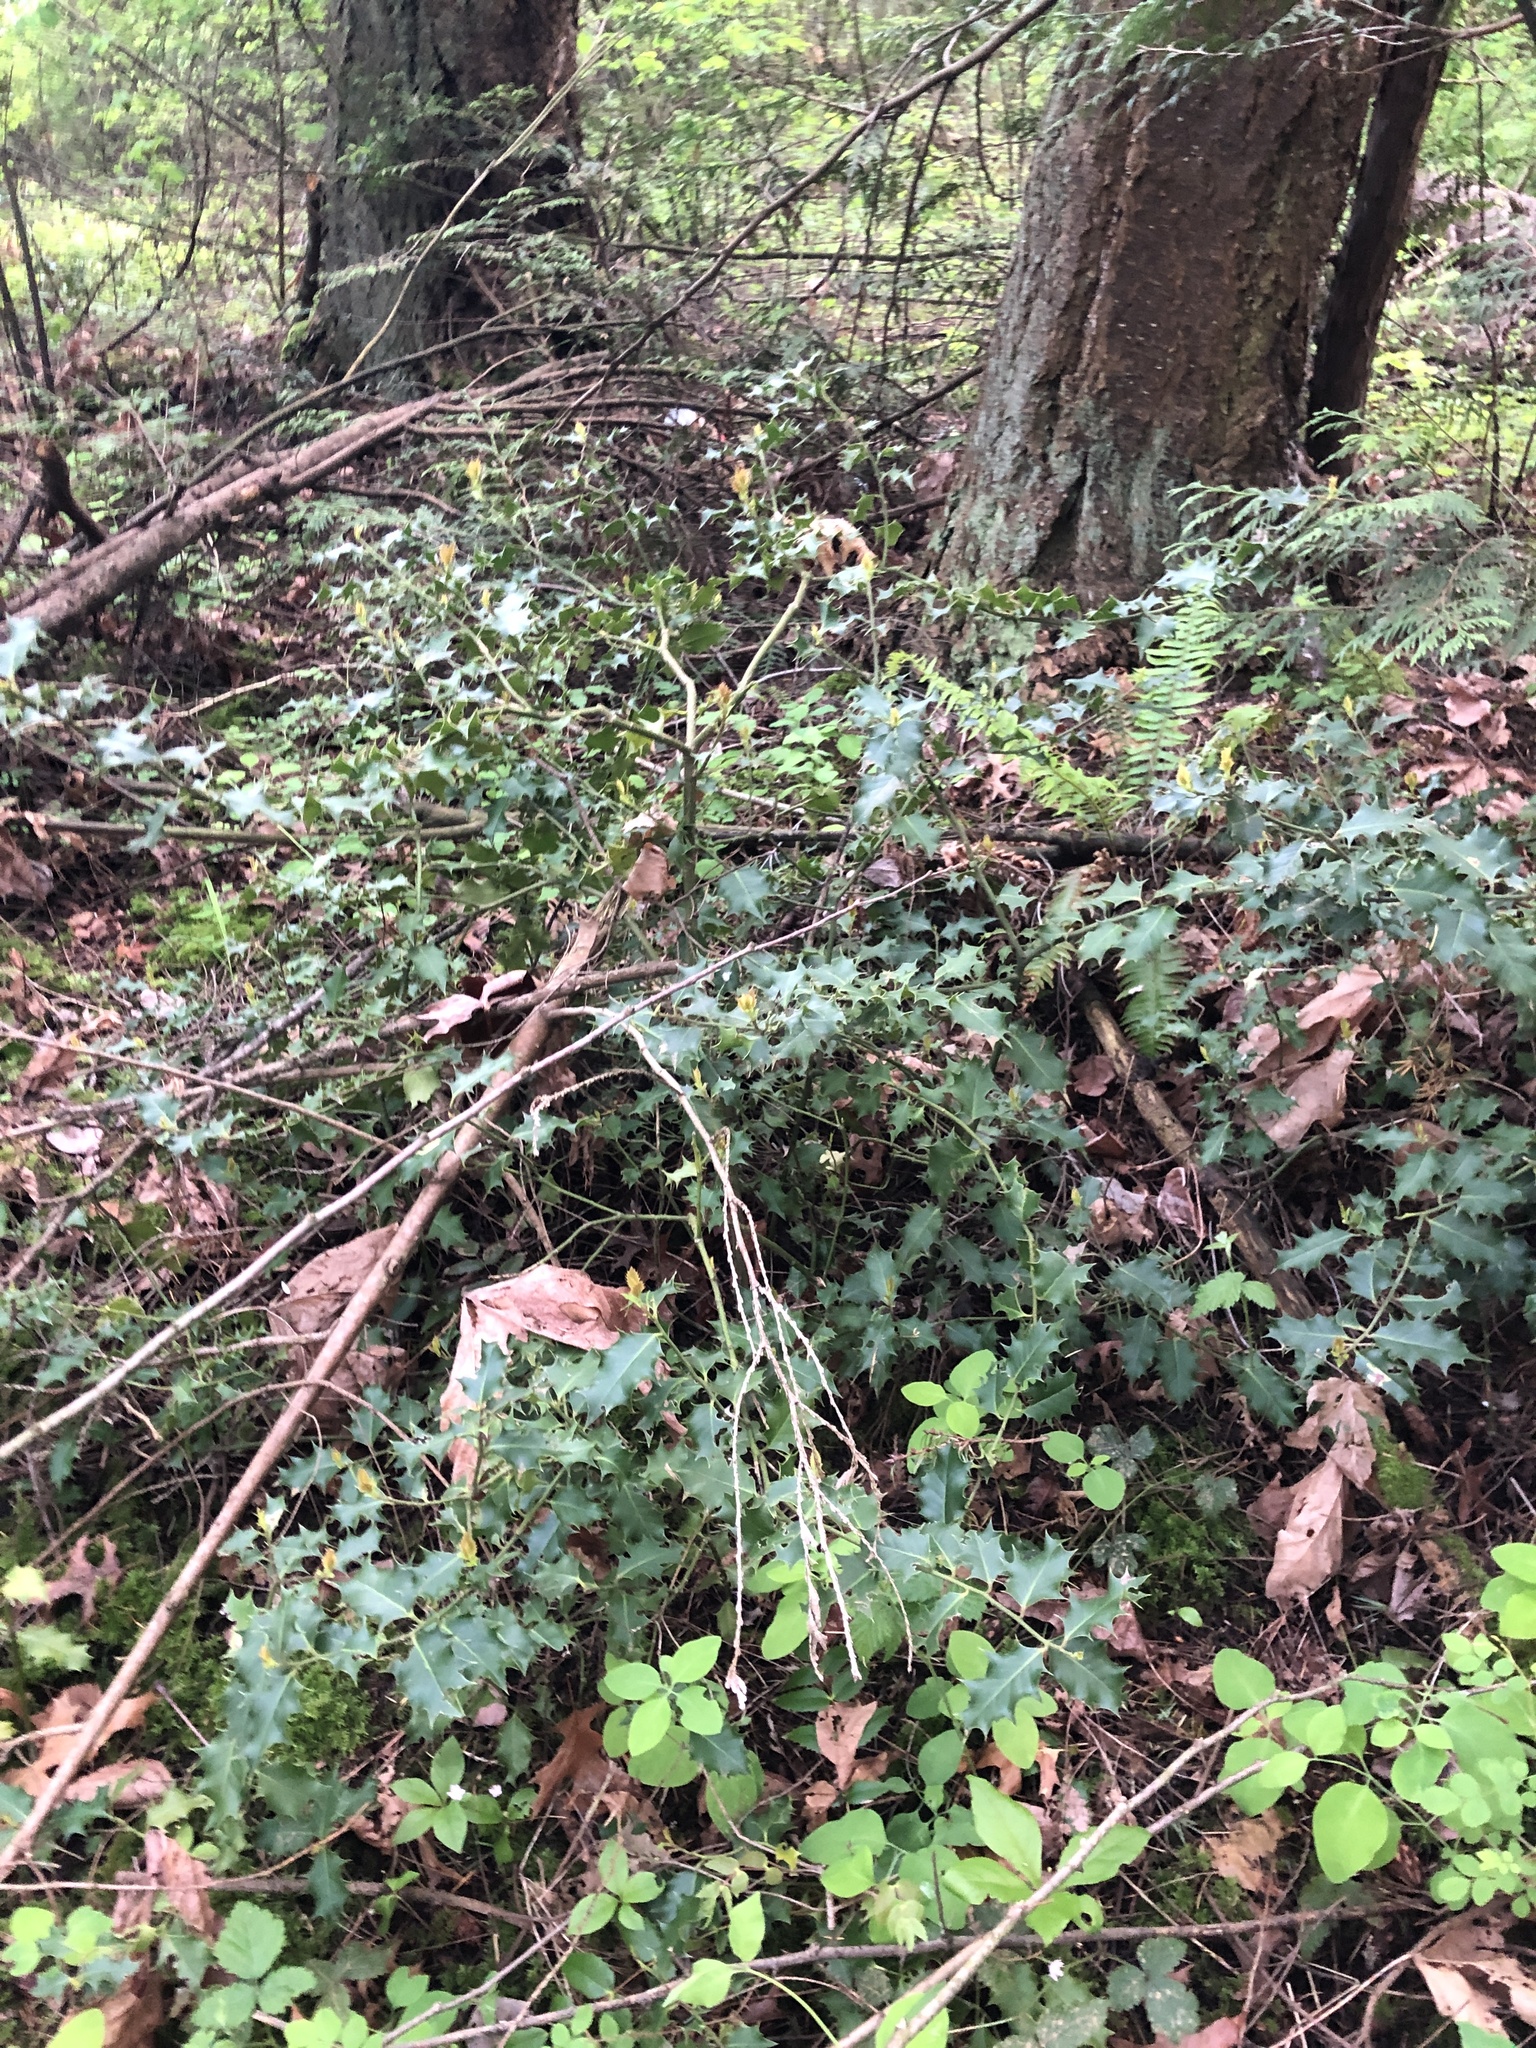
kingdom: Plantae
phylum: Tracheophyta
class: Magnoliopsida
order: Aquifoliales
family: Aquifoliaceae
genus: Ilex
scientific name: Ilex aquifolium
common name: English holly
